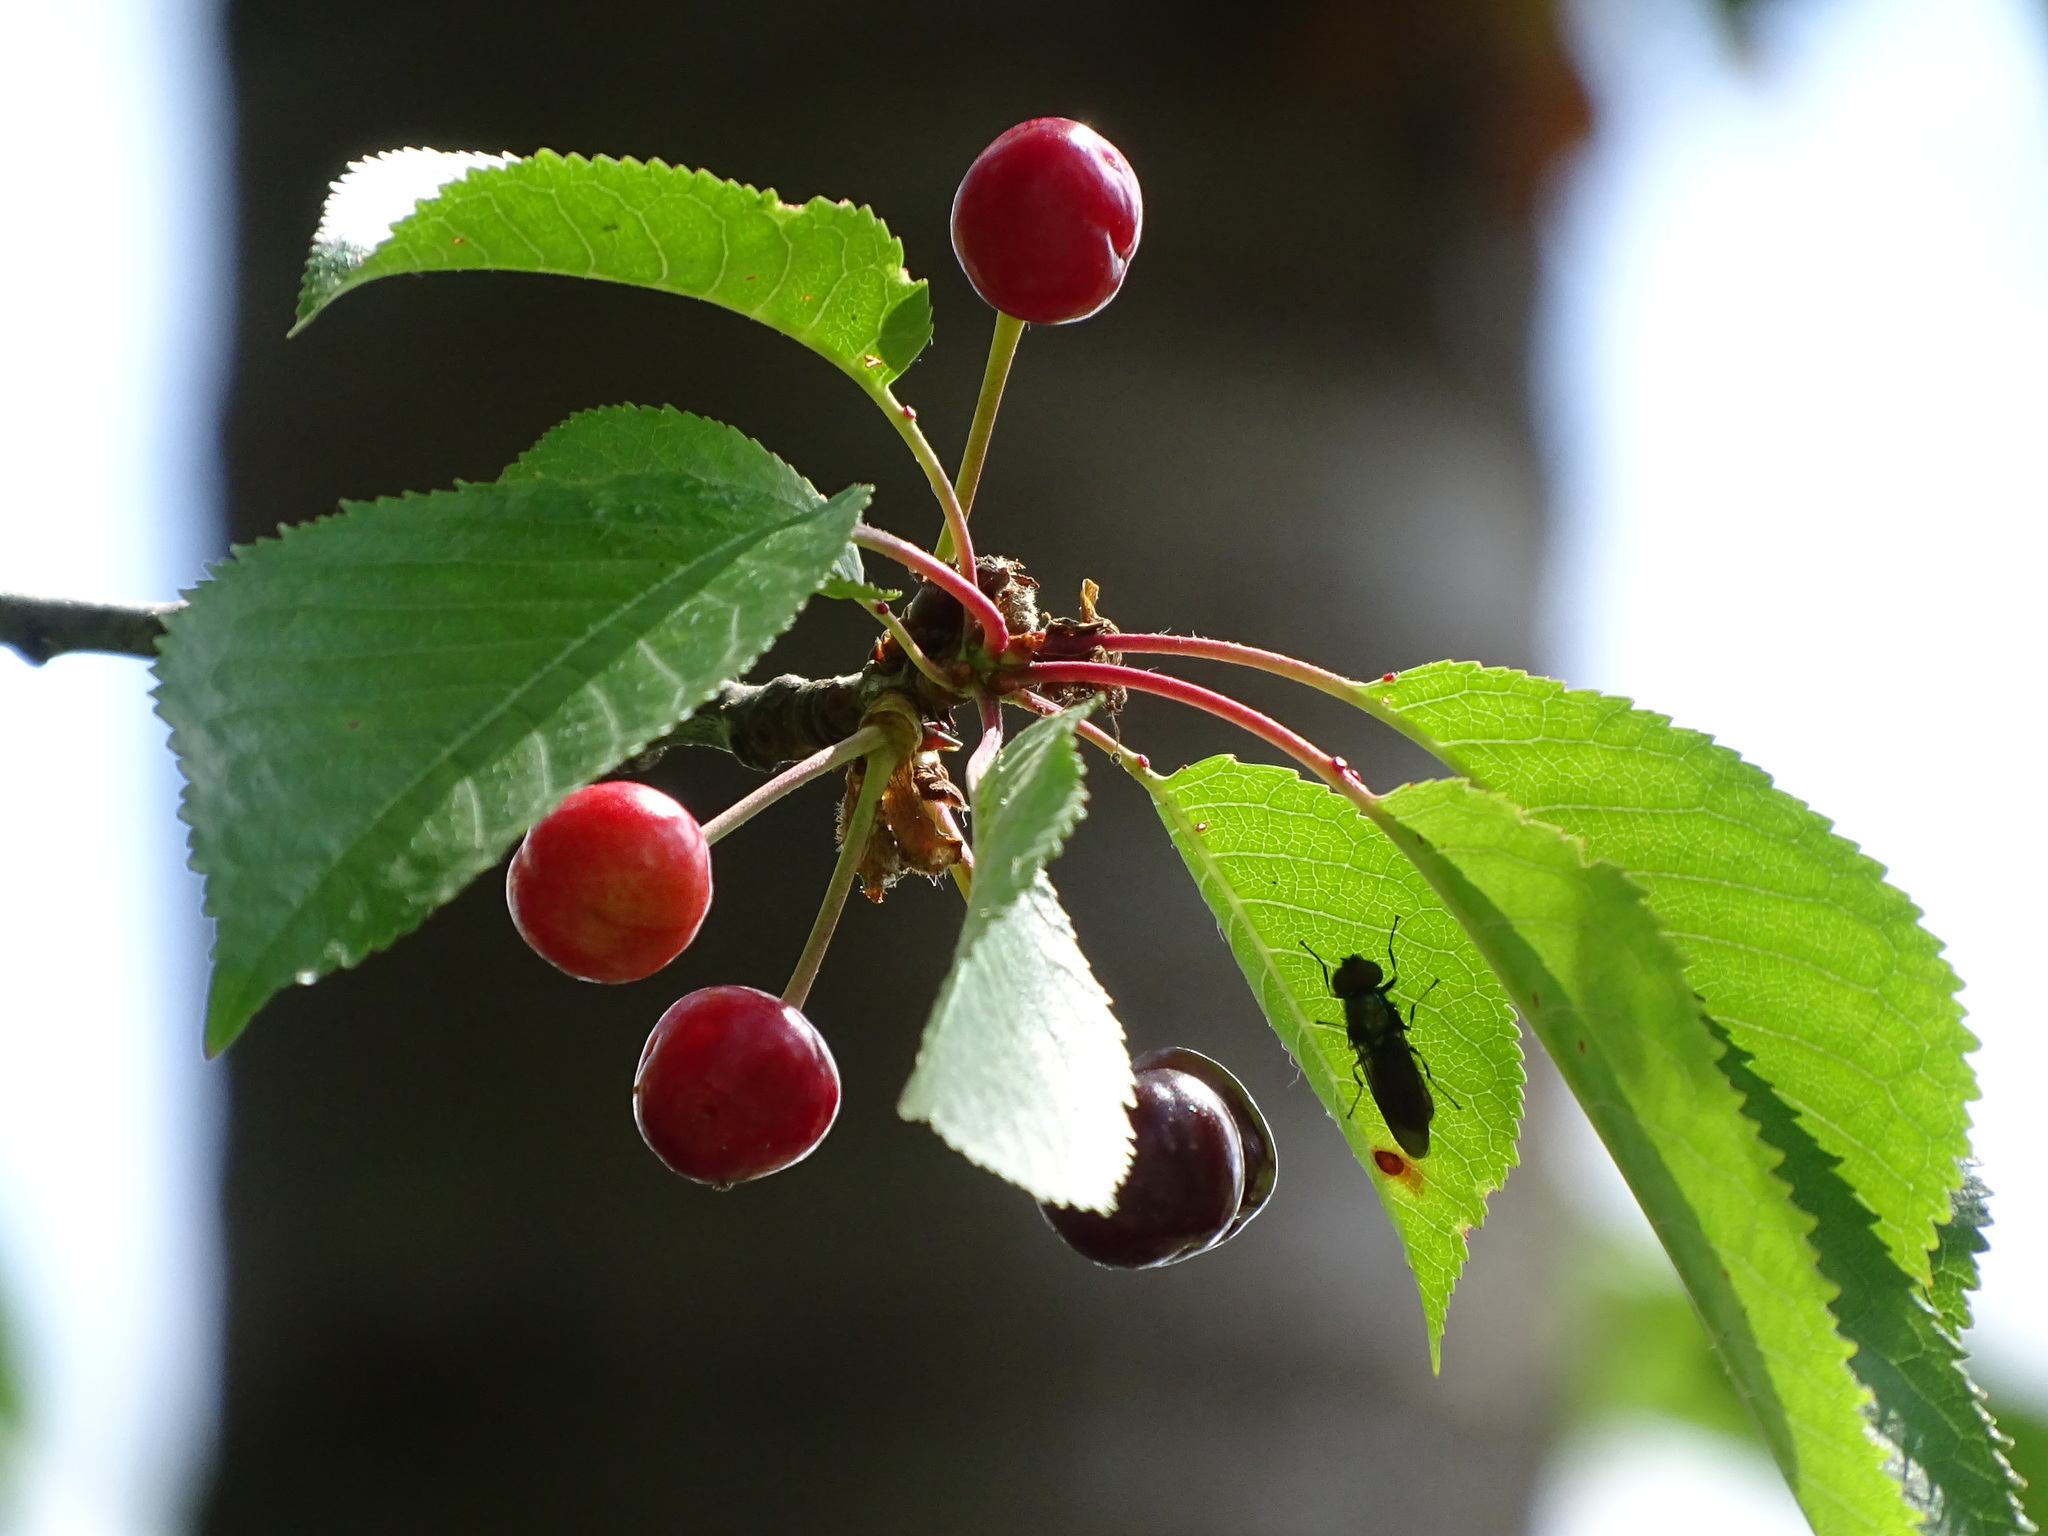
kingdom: Plantae
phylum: Tracheophyta
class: Magnoliopsida
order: Rosales
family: Rosaceae
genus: Prunus
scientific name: Prunus avium
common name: Sweet cherry
